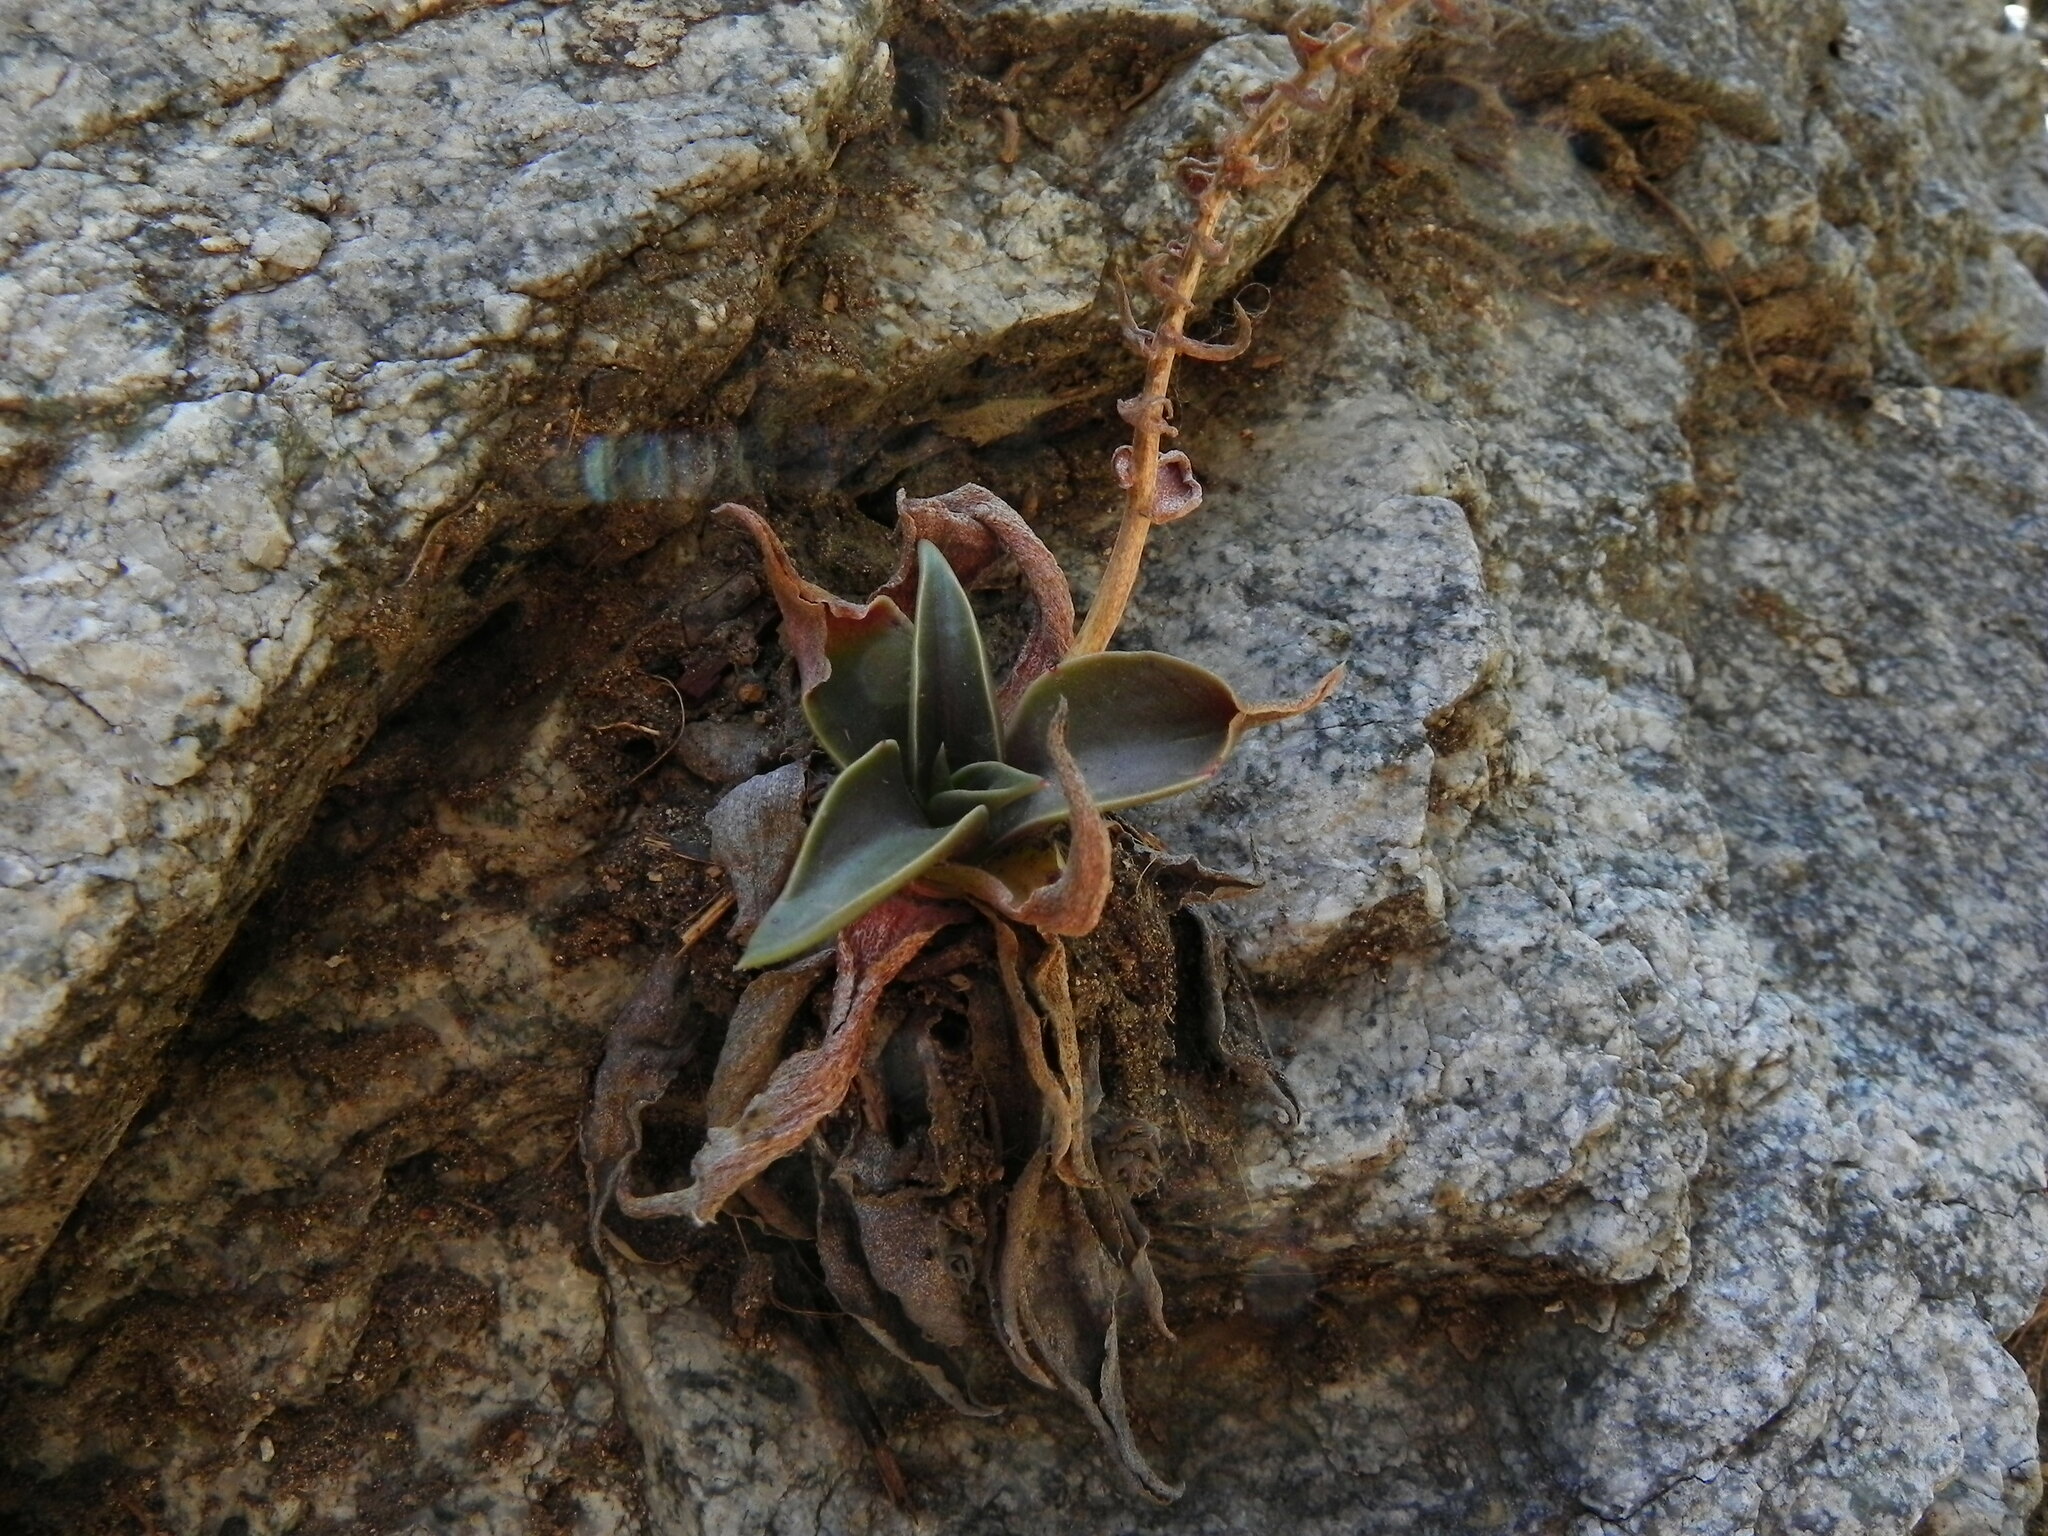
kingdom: Plantae
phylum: Tracheophyta
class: Magnoliopsida
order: Saxifragales
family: Crassulaceae
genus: Dudleya
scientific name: Dudleya cymosa
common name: Canyon dudleya
